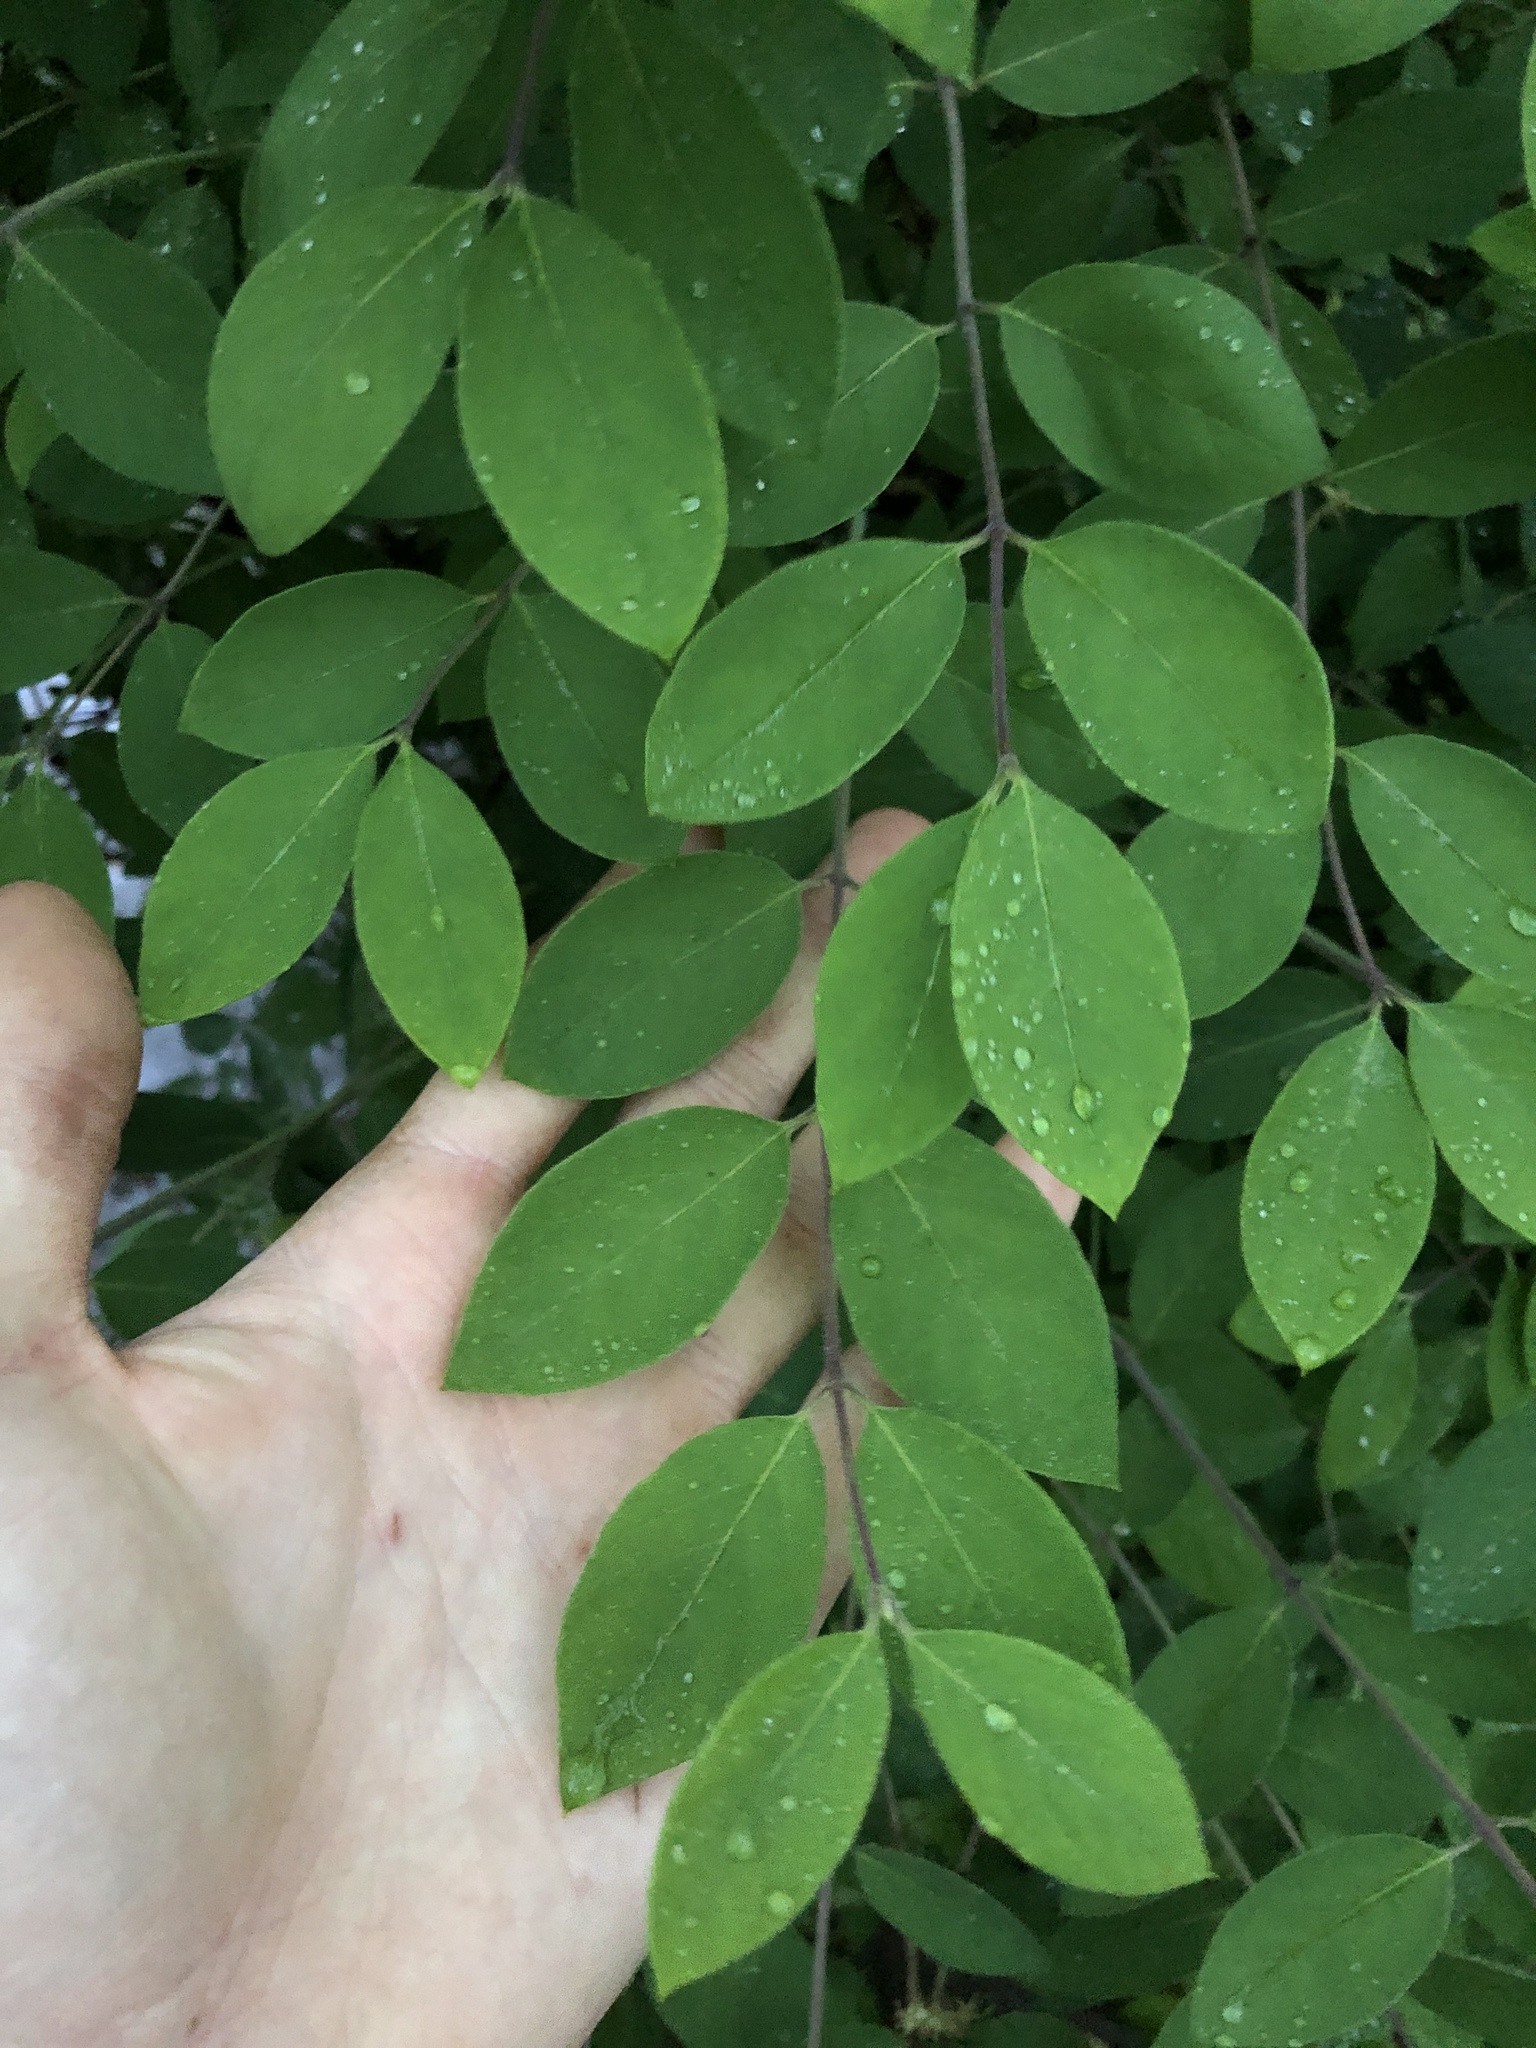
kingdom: Plantae
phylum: Tracheophyta
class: Magnoliopsida
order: Dipsacales
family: Caprifoliaceae
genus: Lonicera
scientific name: Lonicera morrowii
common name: Morrow's honeysuckle
